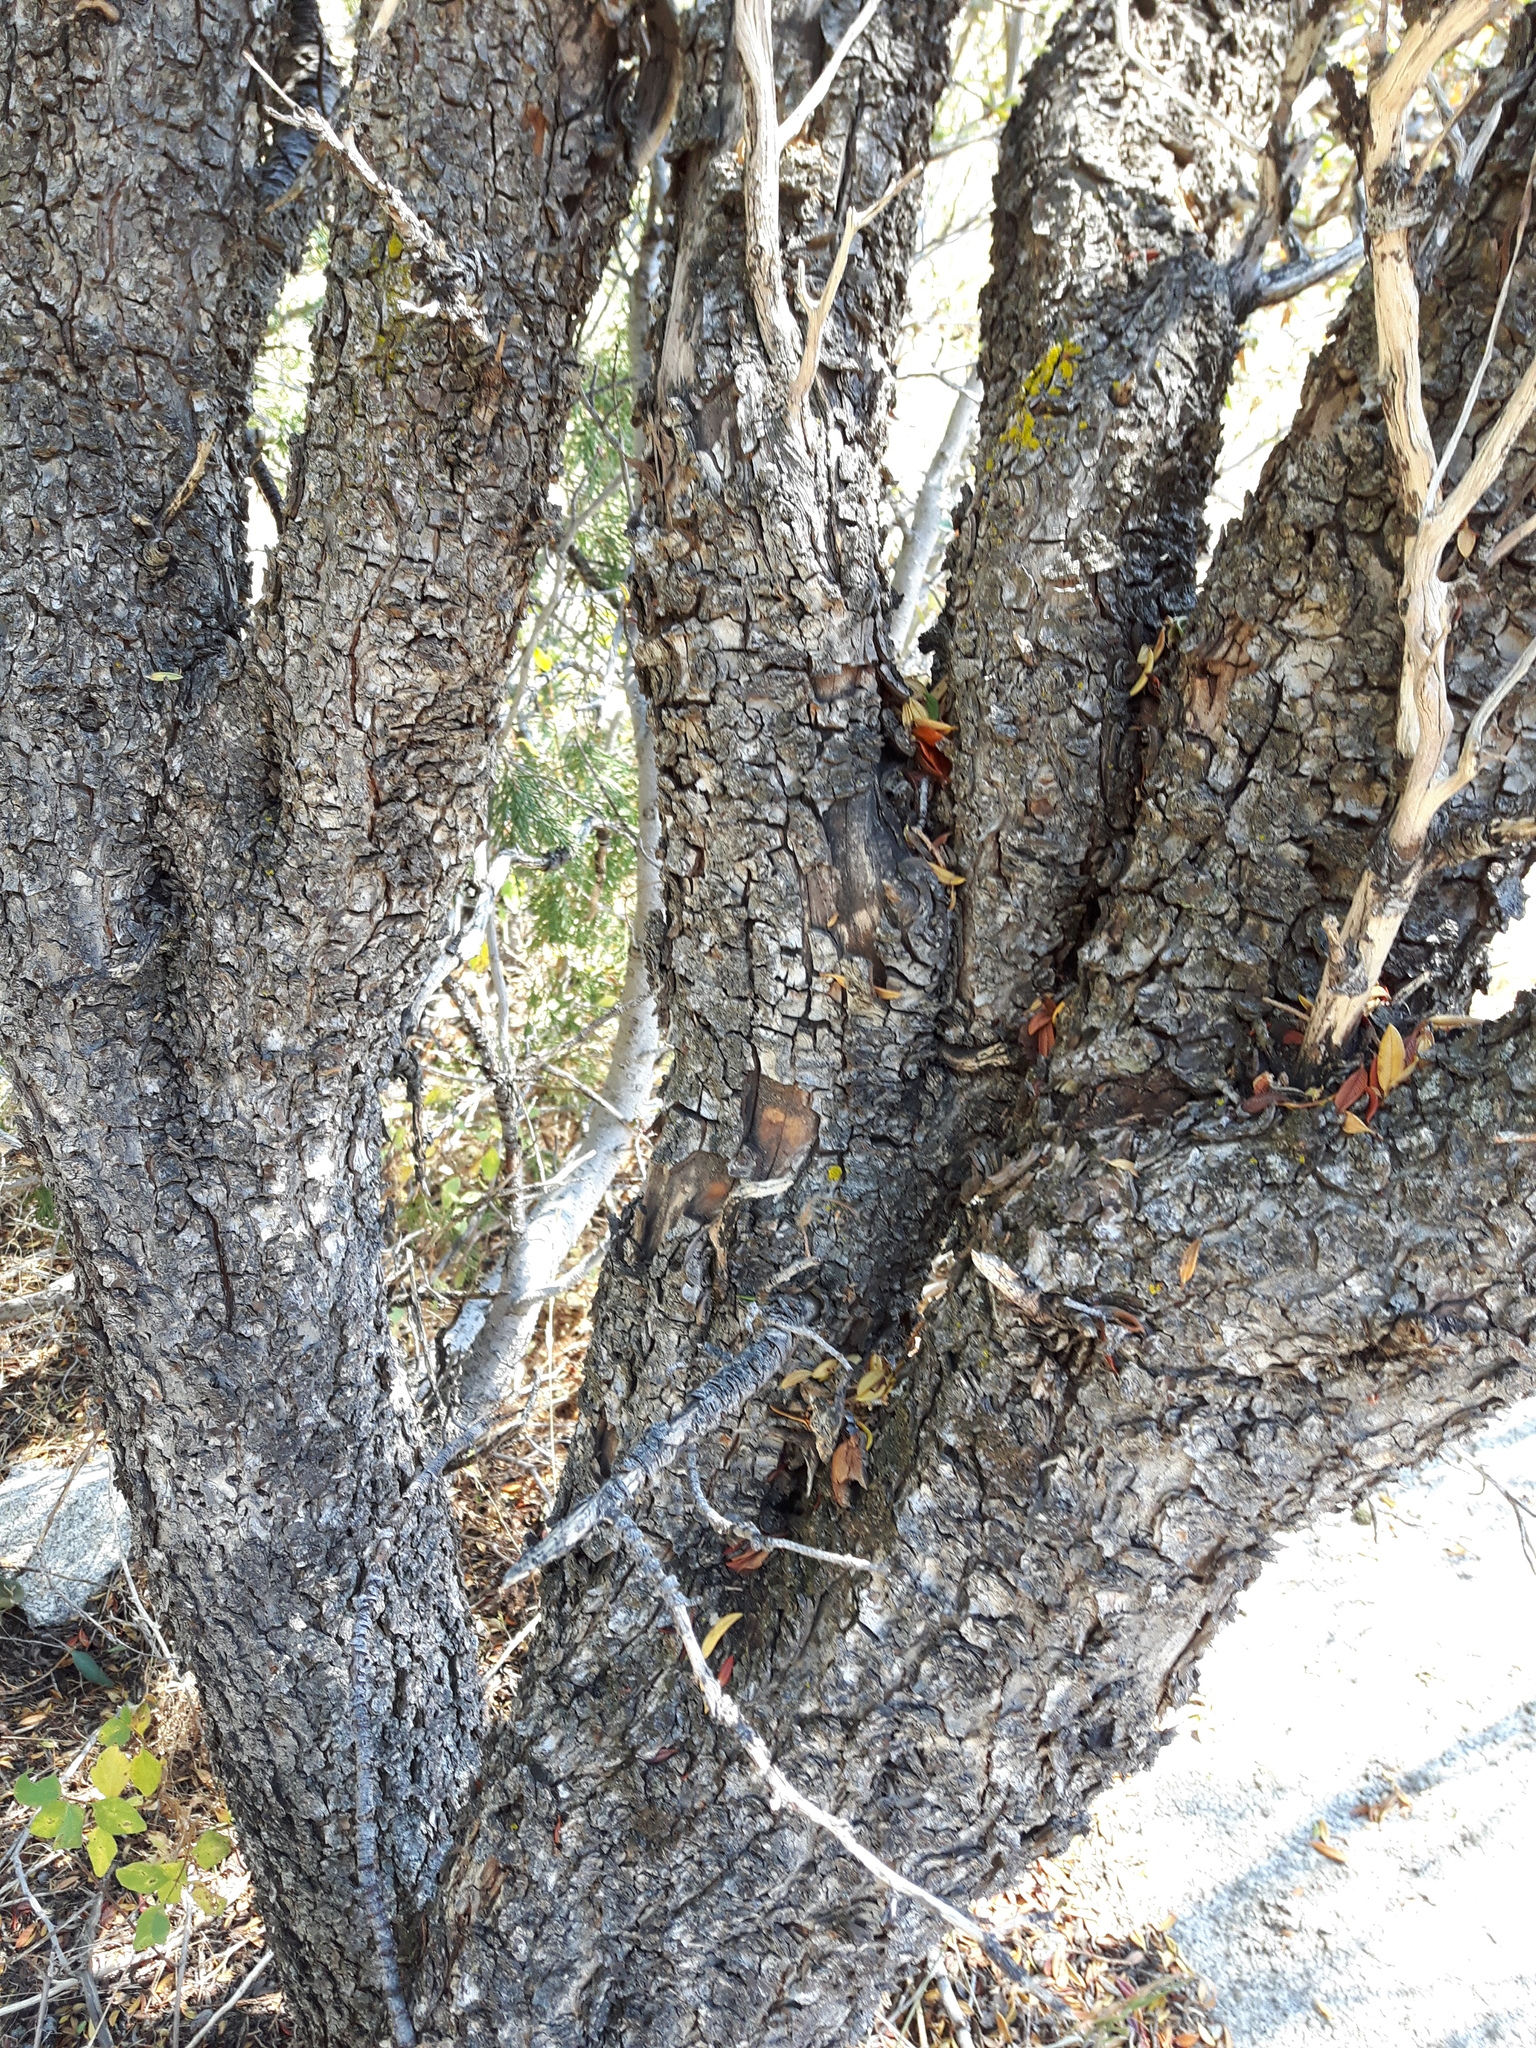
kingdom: Plantae
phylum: Tracheophyta
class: Magnoliopsida
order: Rosales
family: Rosaceae
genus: Cercocarpus
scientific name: Cercocarpus ledifolius
